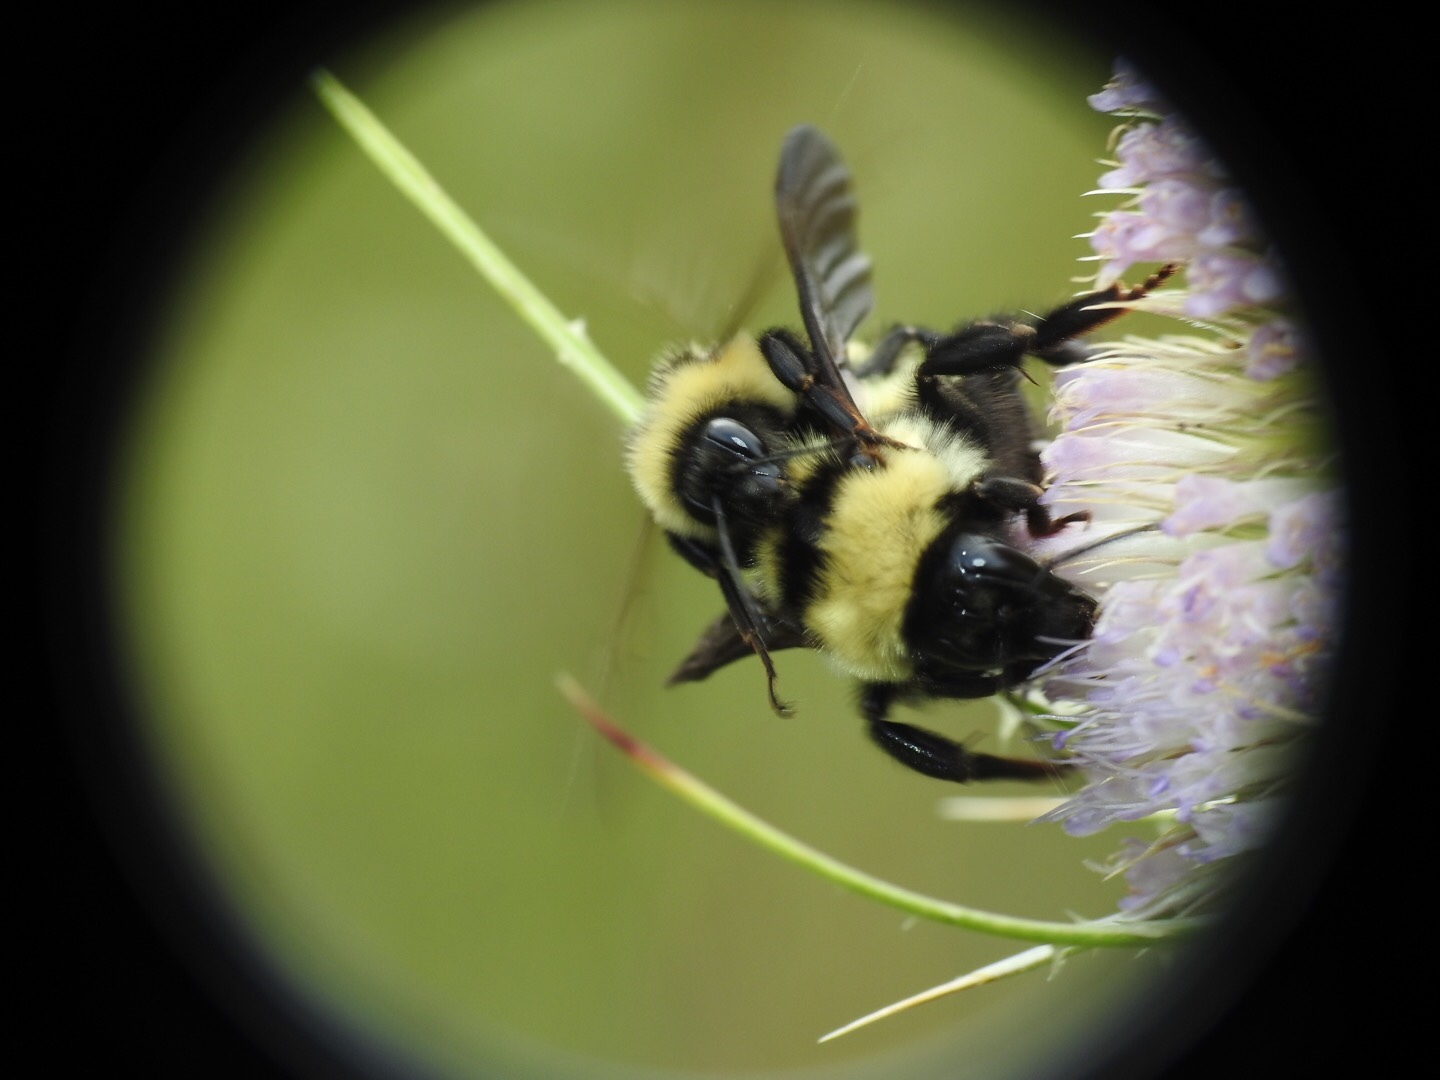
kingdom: Animalia
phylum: Arthropoda
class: Insecta
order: Hymenoptera
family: Apidae
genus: Bombus
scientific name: Bombus fervidus
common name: Yellow bumble bee
